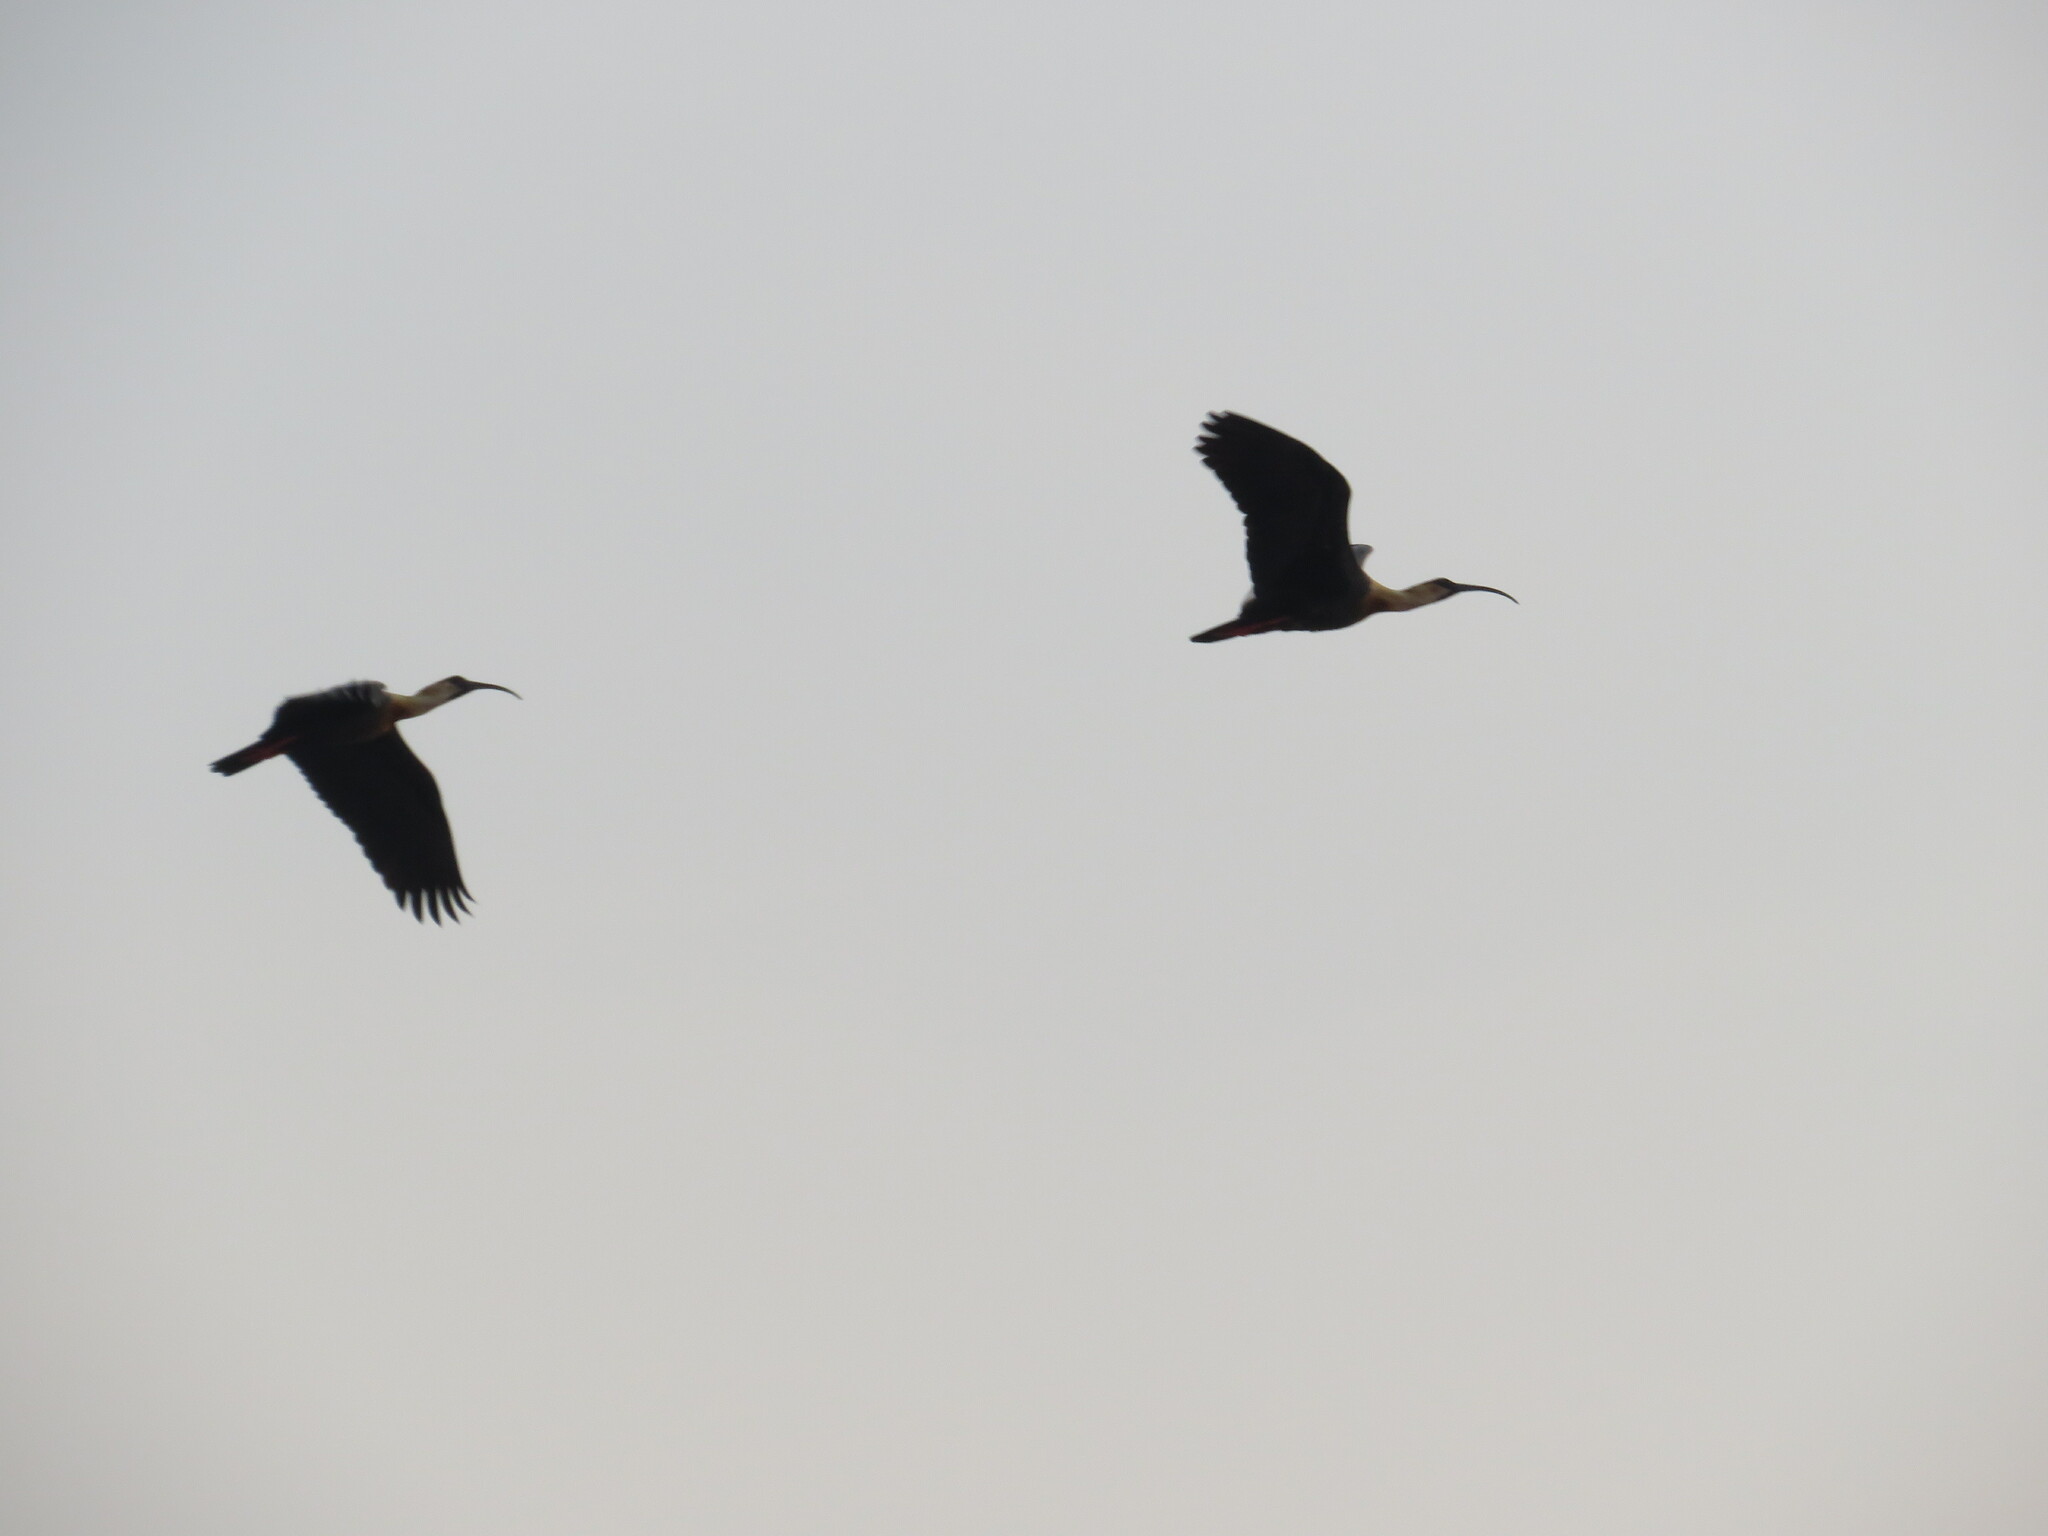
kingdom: Animalia
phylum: Chordata
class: Aves
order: Pelecaniformes
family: Threskiornithidae
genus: Theristicus
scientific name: Theristicus caudatus
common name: Buff-necked ibis
